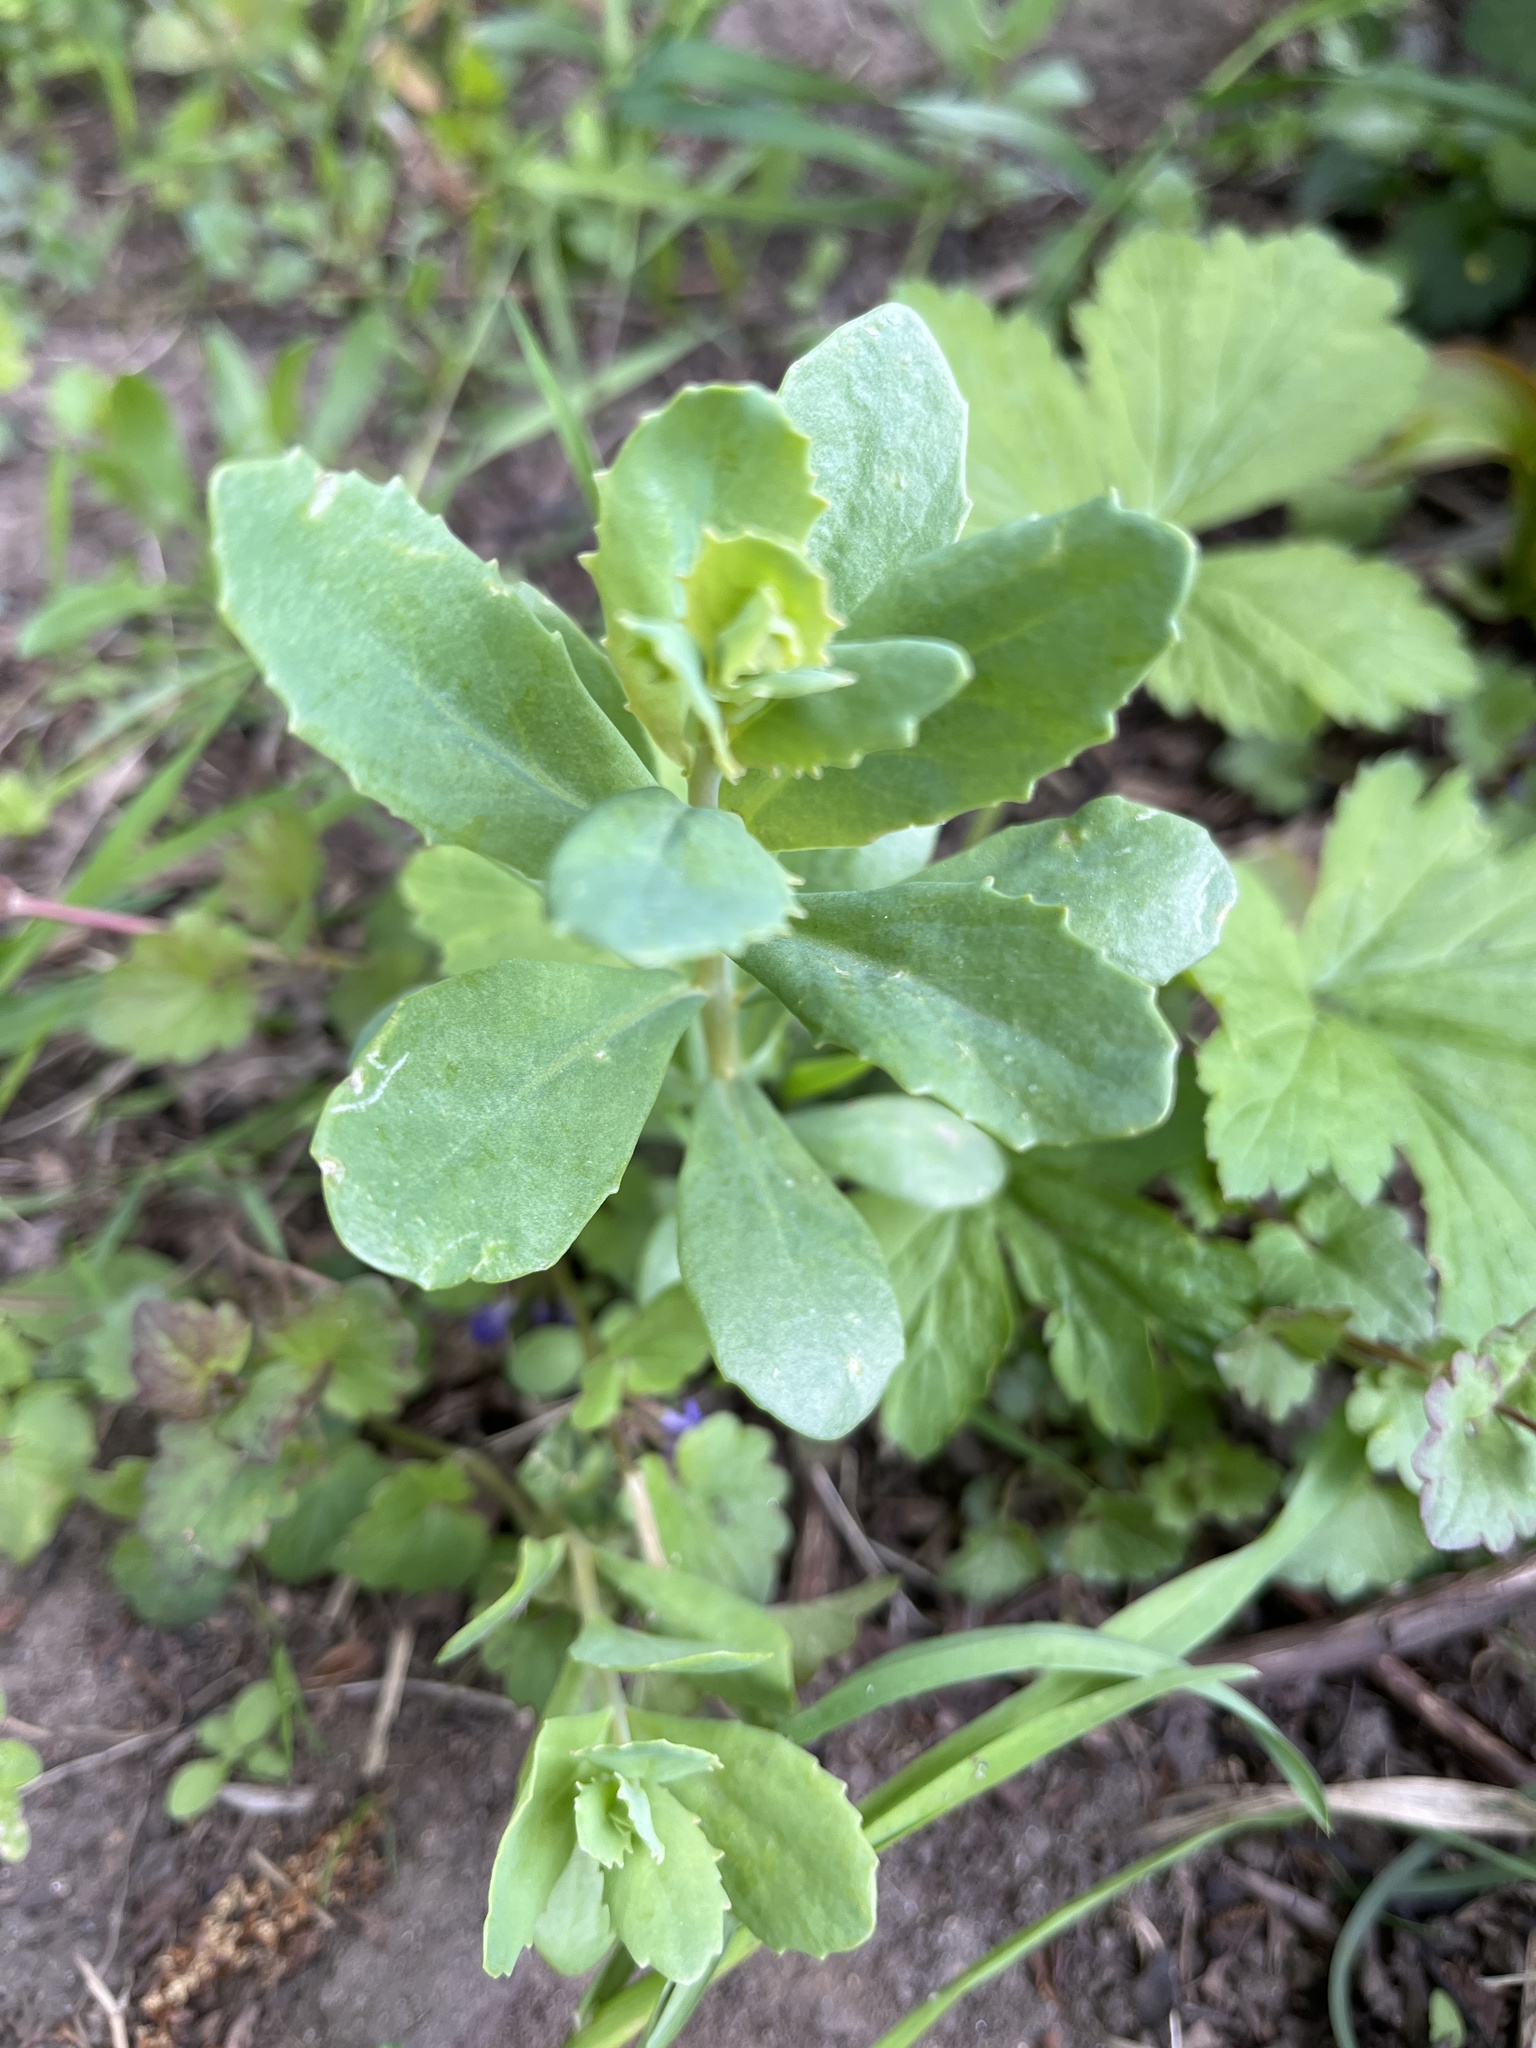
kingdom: Plantae
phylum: Tracheophyta
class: Magnoliopsida
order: Saxifragales
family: Crassulaceae
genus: Hylotelephium
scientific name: Hylotelephium telephium
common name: Live-forever
